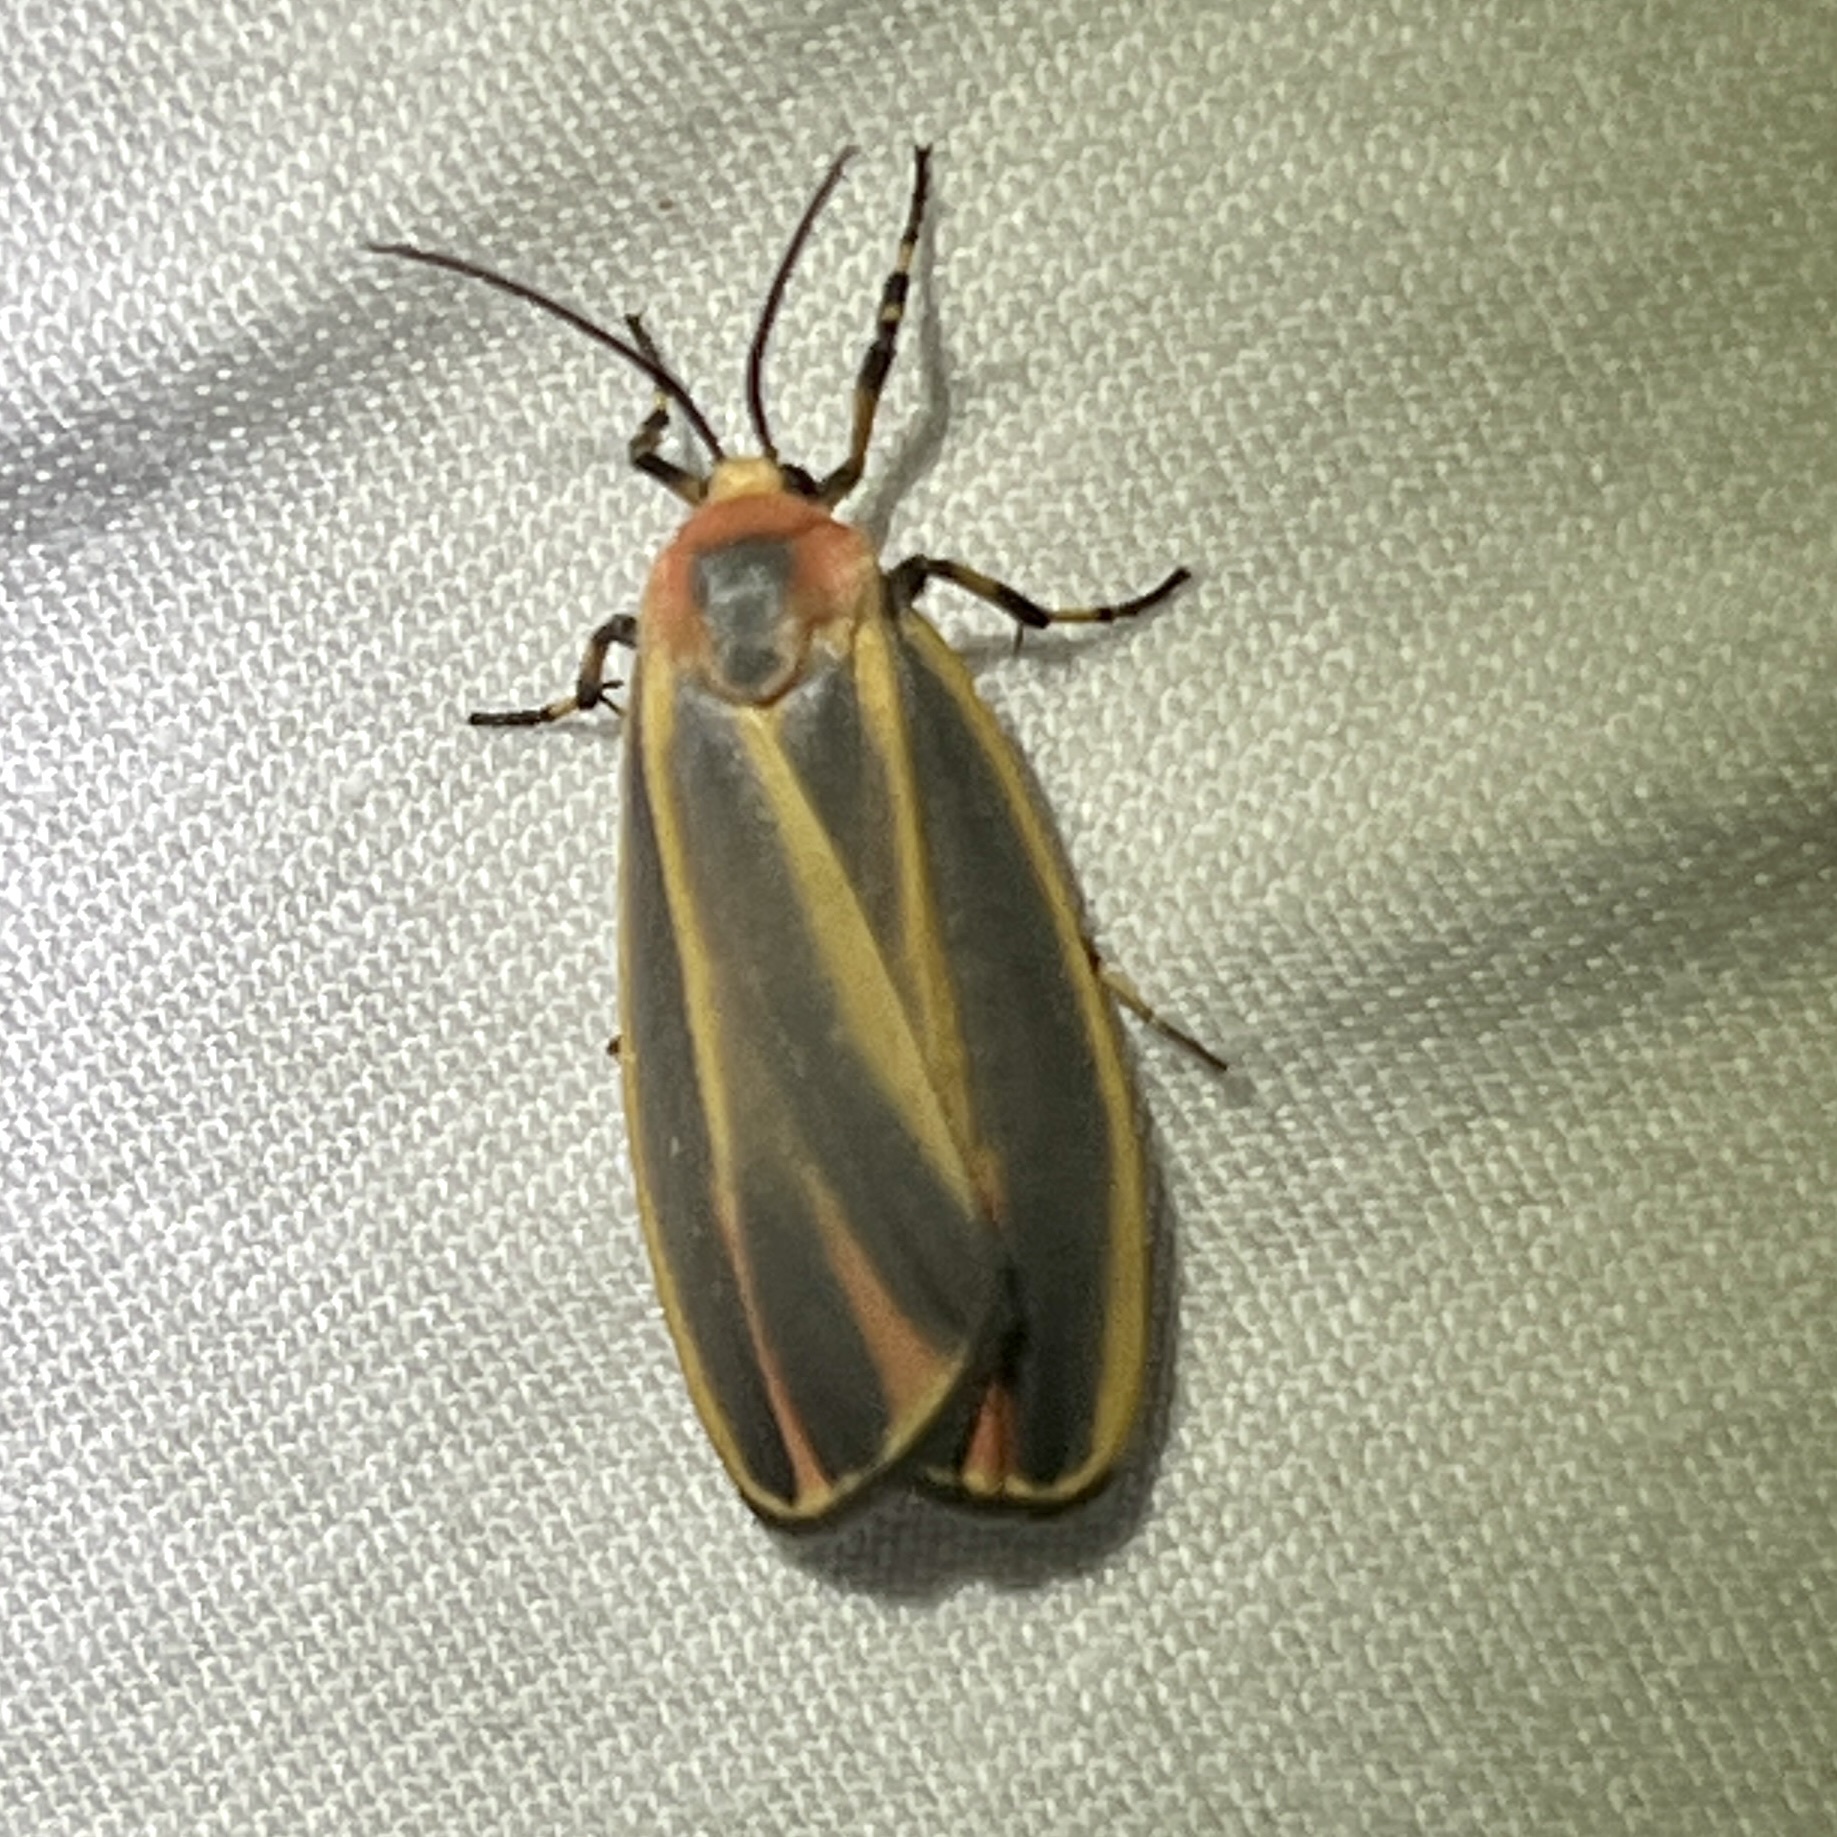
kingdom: Animalia
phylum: Arthropoda
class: Insecta
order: Lepidoptera
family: Erebidae
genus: Hypoprepia
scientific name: Hypoprepia fucosa
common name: Painted lichen moth
